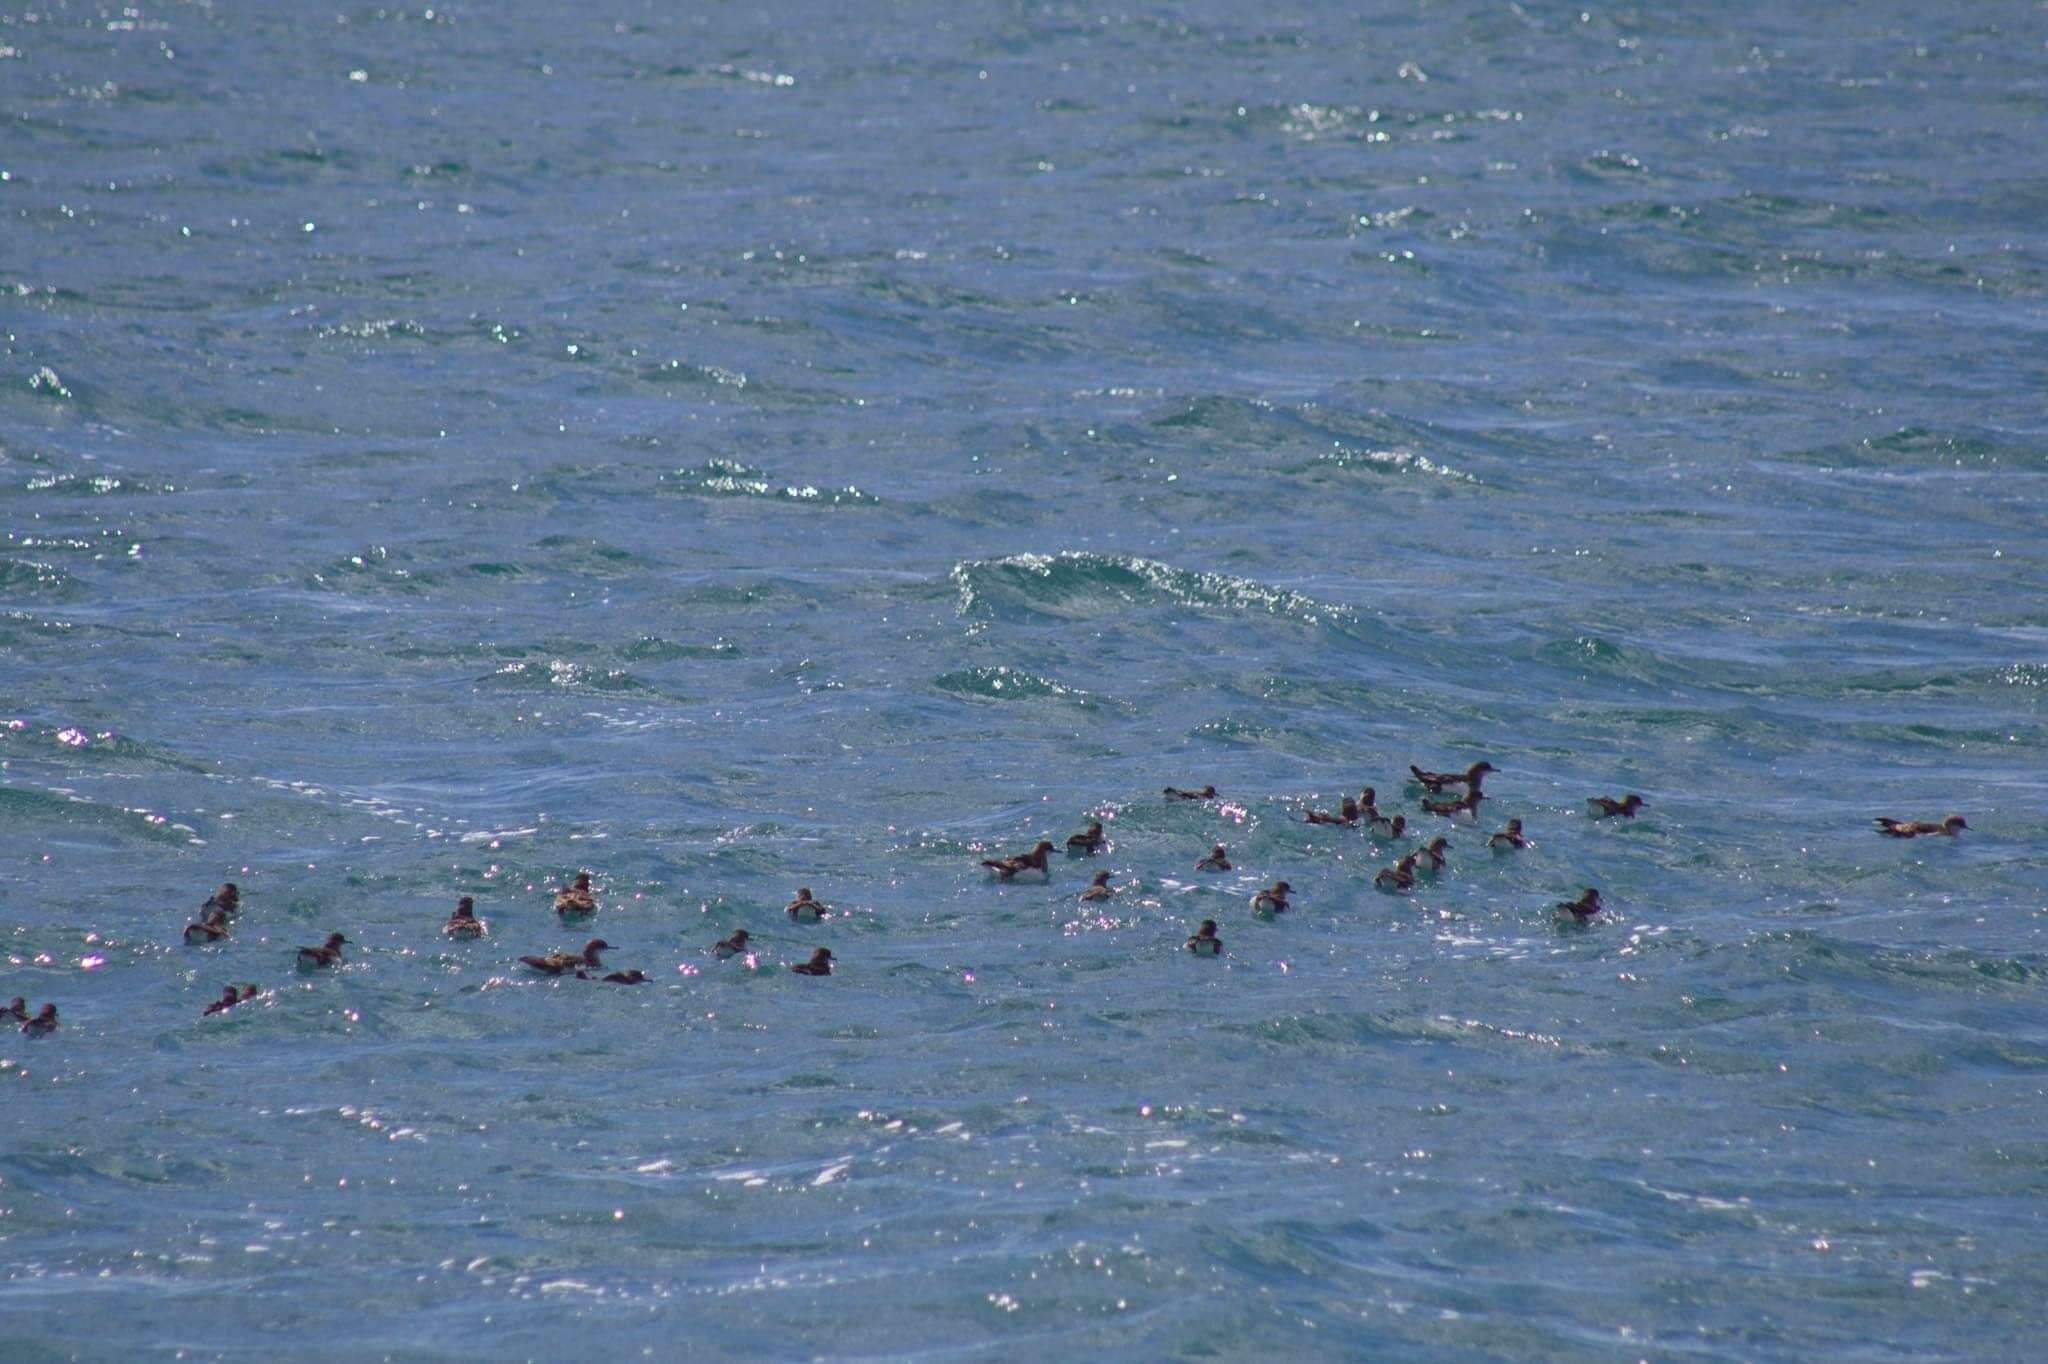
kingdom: Animalia
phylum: Chordata
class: Aves
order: Procellariiformes
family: Procellariidae
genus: Puffinus
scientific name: Puffinus gavia
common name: Fluttering shearwater
